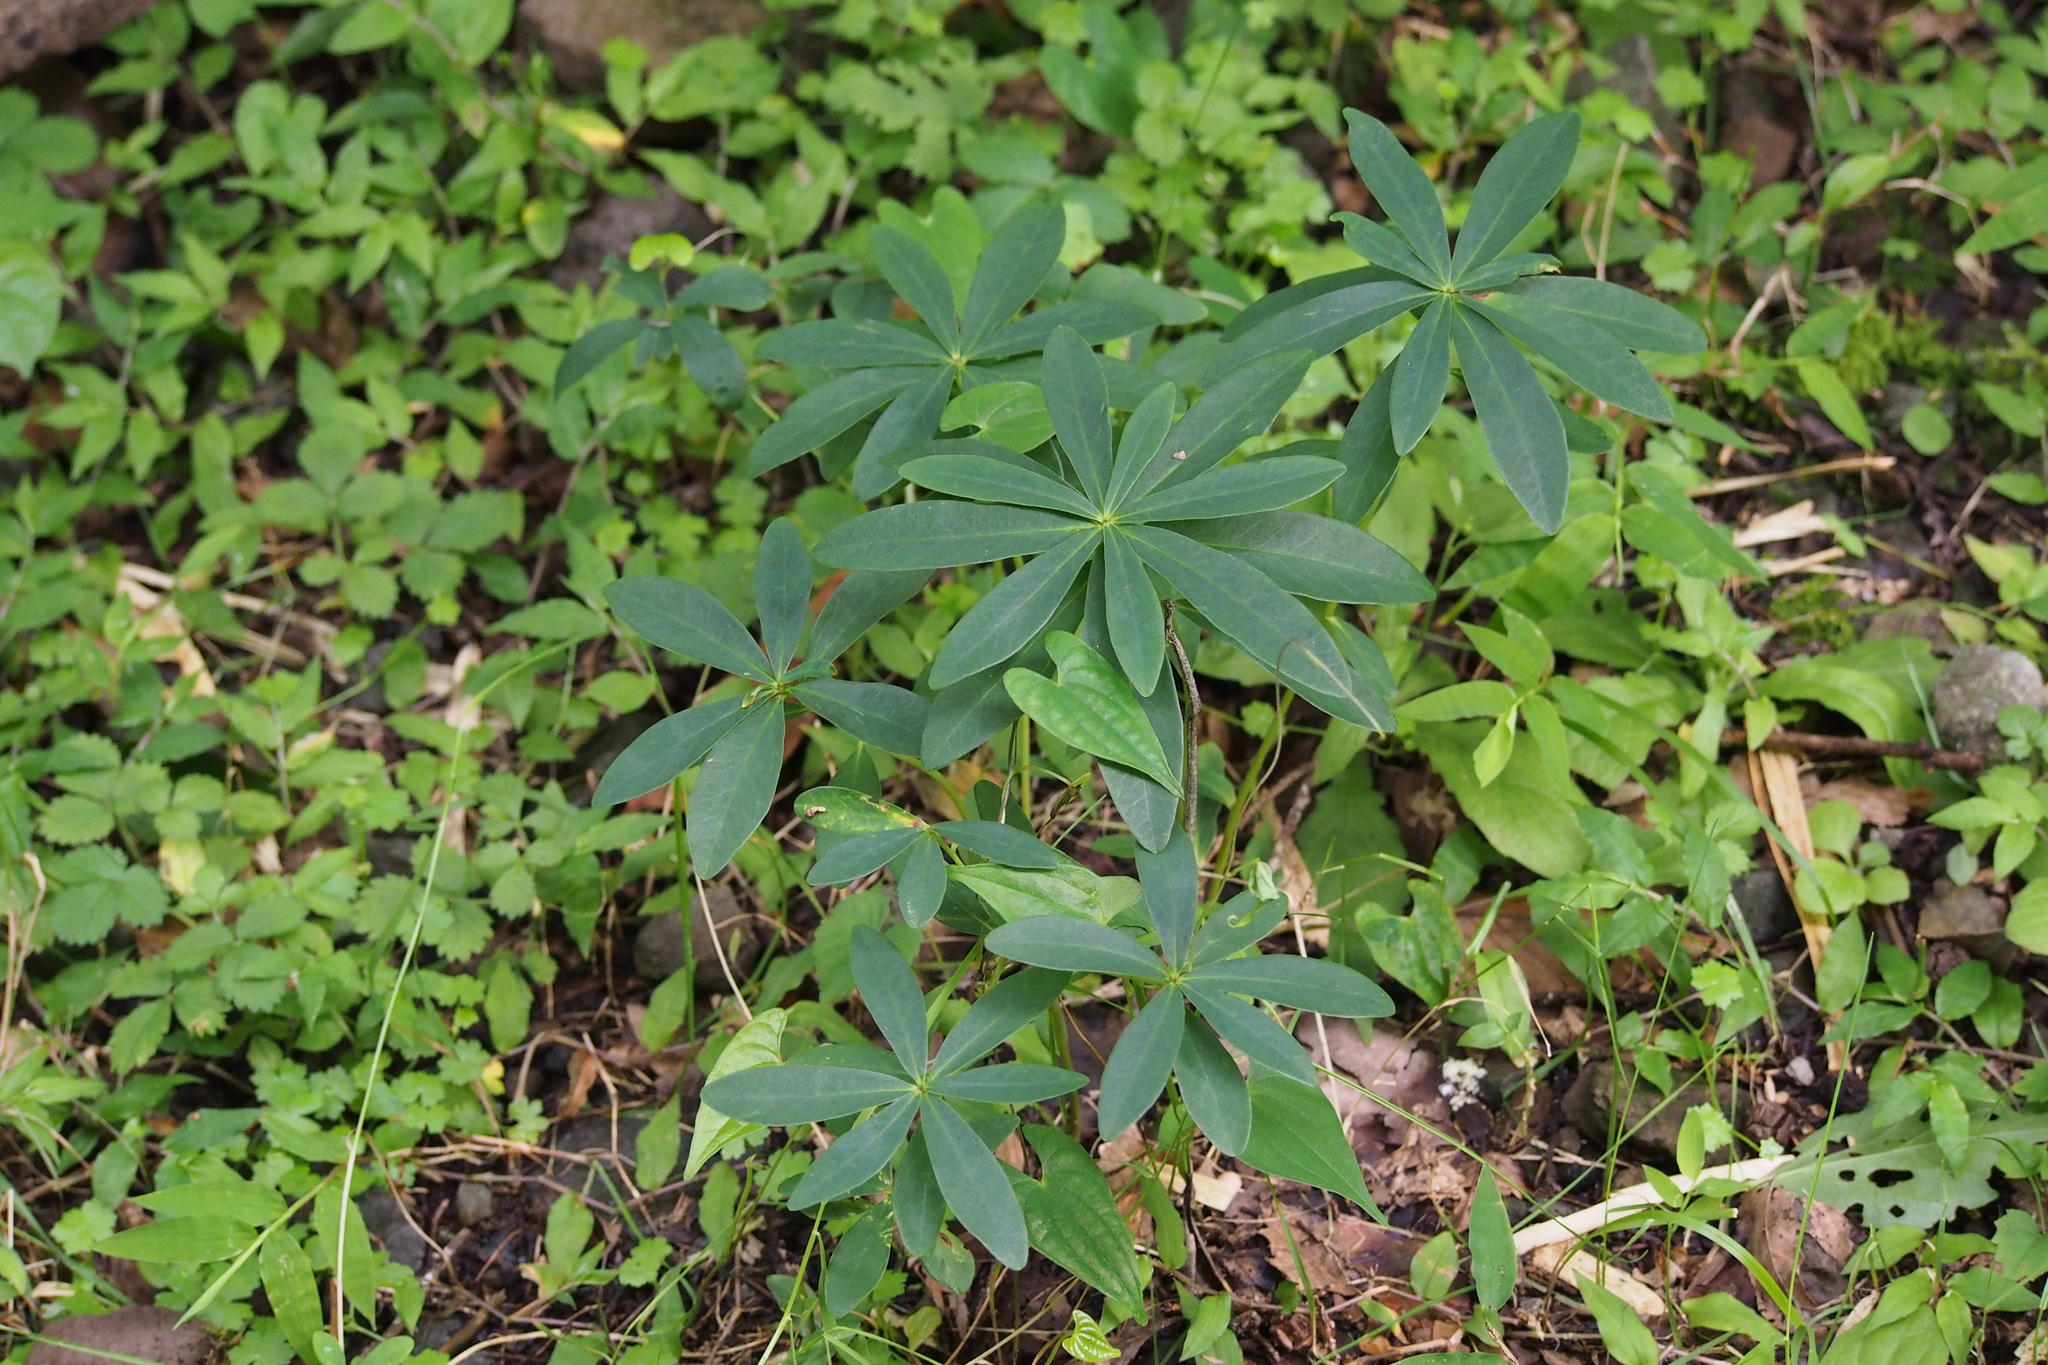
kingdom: Plantae
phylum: Tracheophyta
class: Magnoliopsida
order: Malvales
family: Thymelaeaceae
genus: Daphne
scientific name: Daphne pseudomezereum
